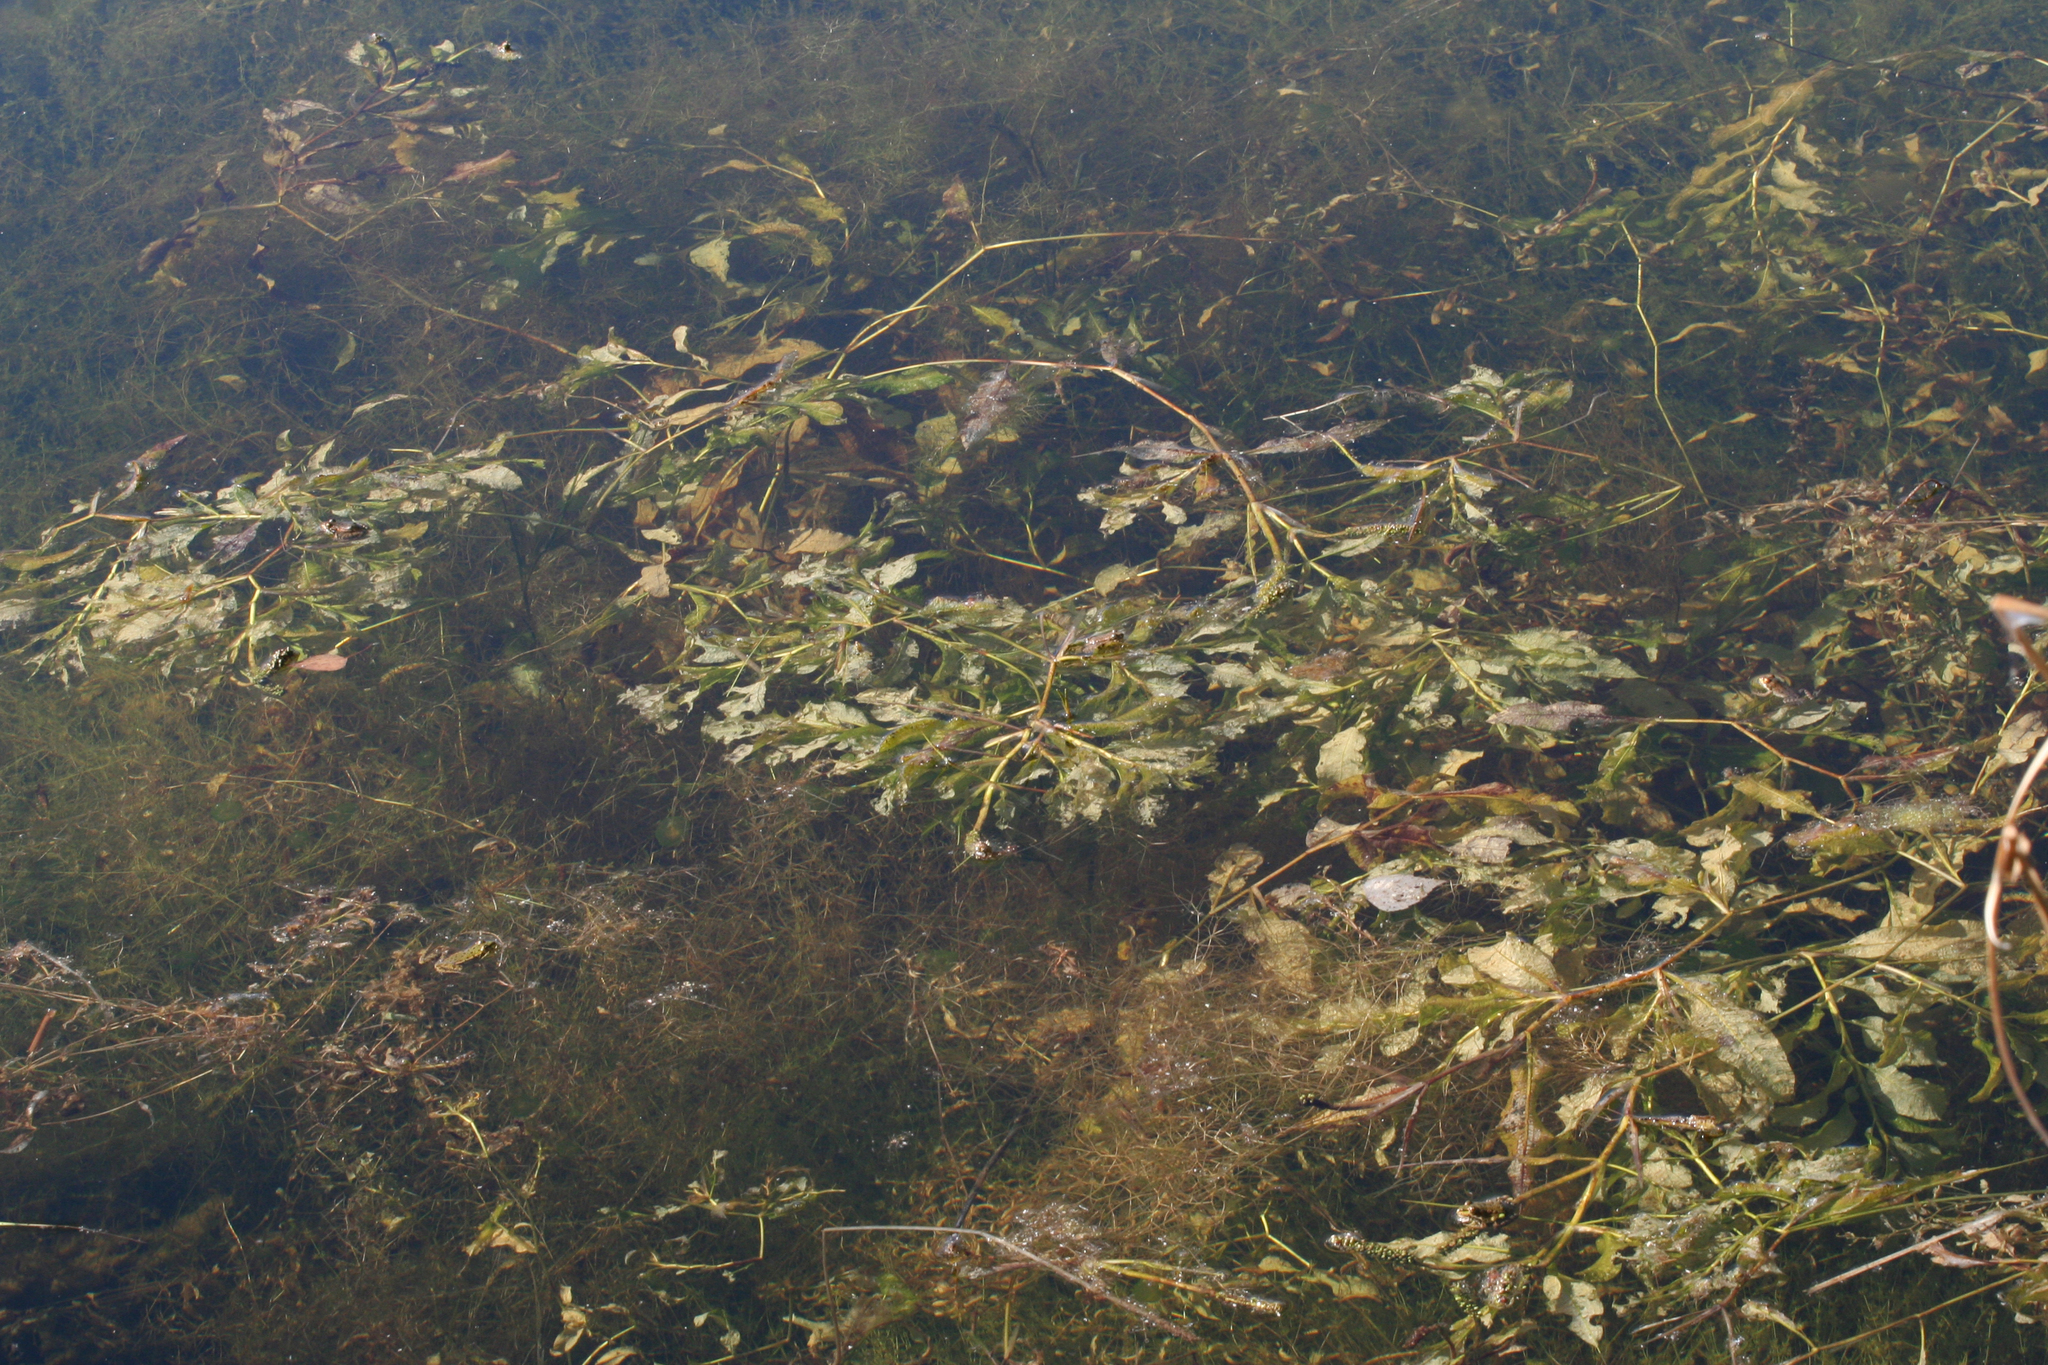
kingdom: Plantae
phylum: Tracheophyta
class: Liliopsida
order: Alismatales
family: Potamogetonaceae
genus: Potamogeton
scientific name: Potamogeton lucens
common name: Shining pondweed
